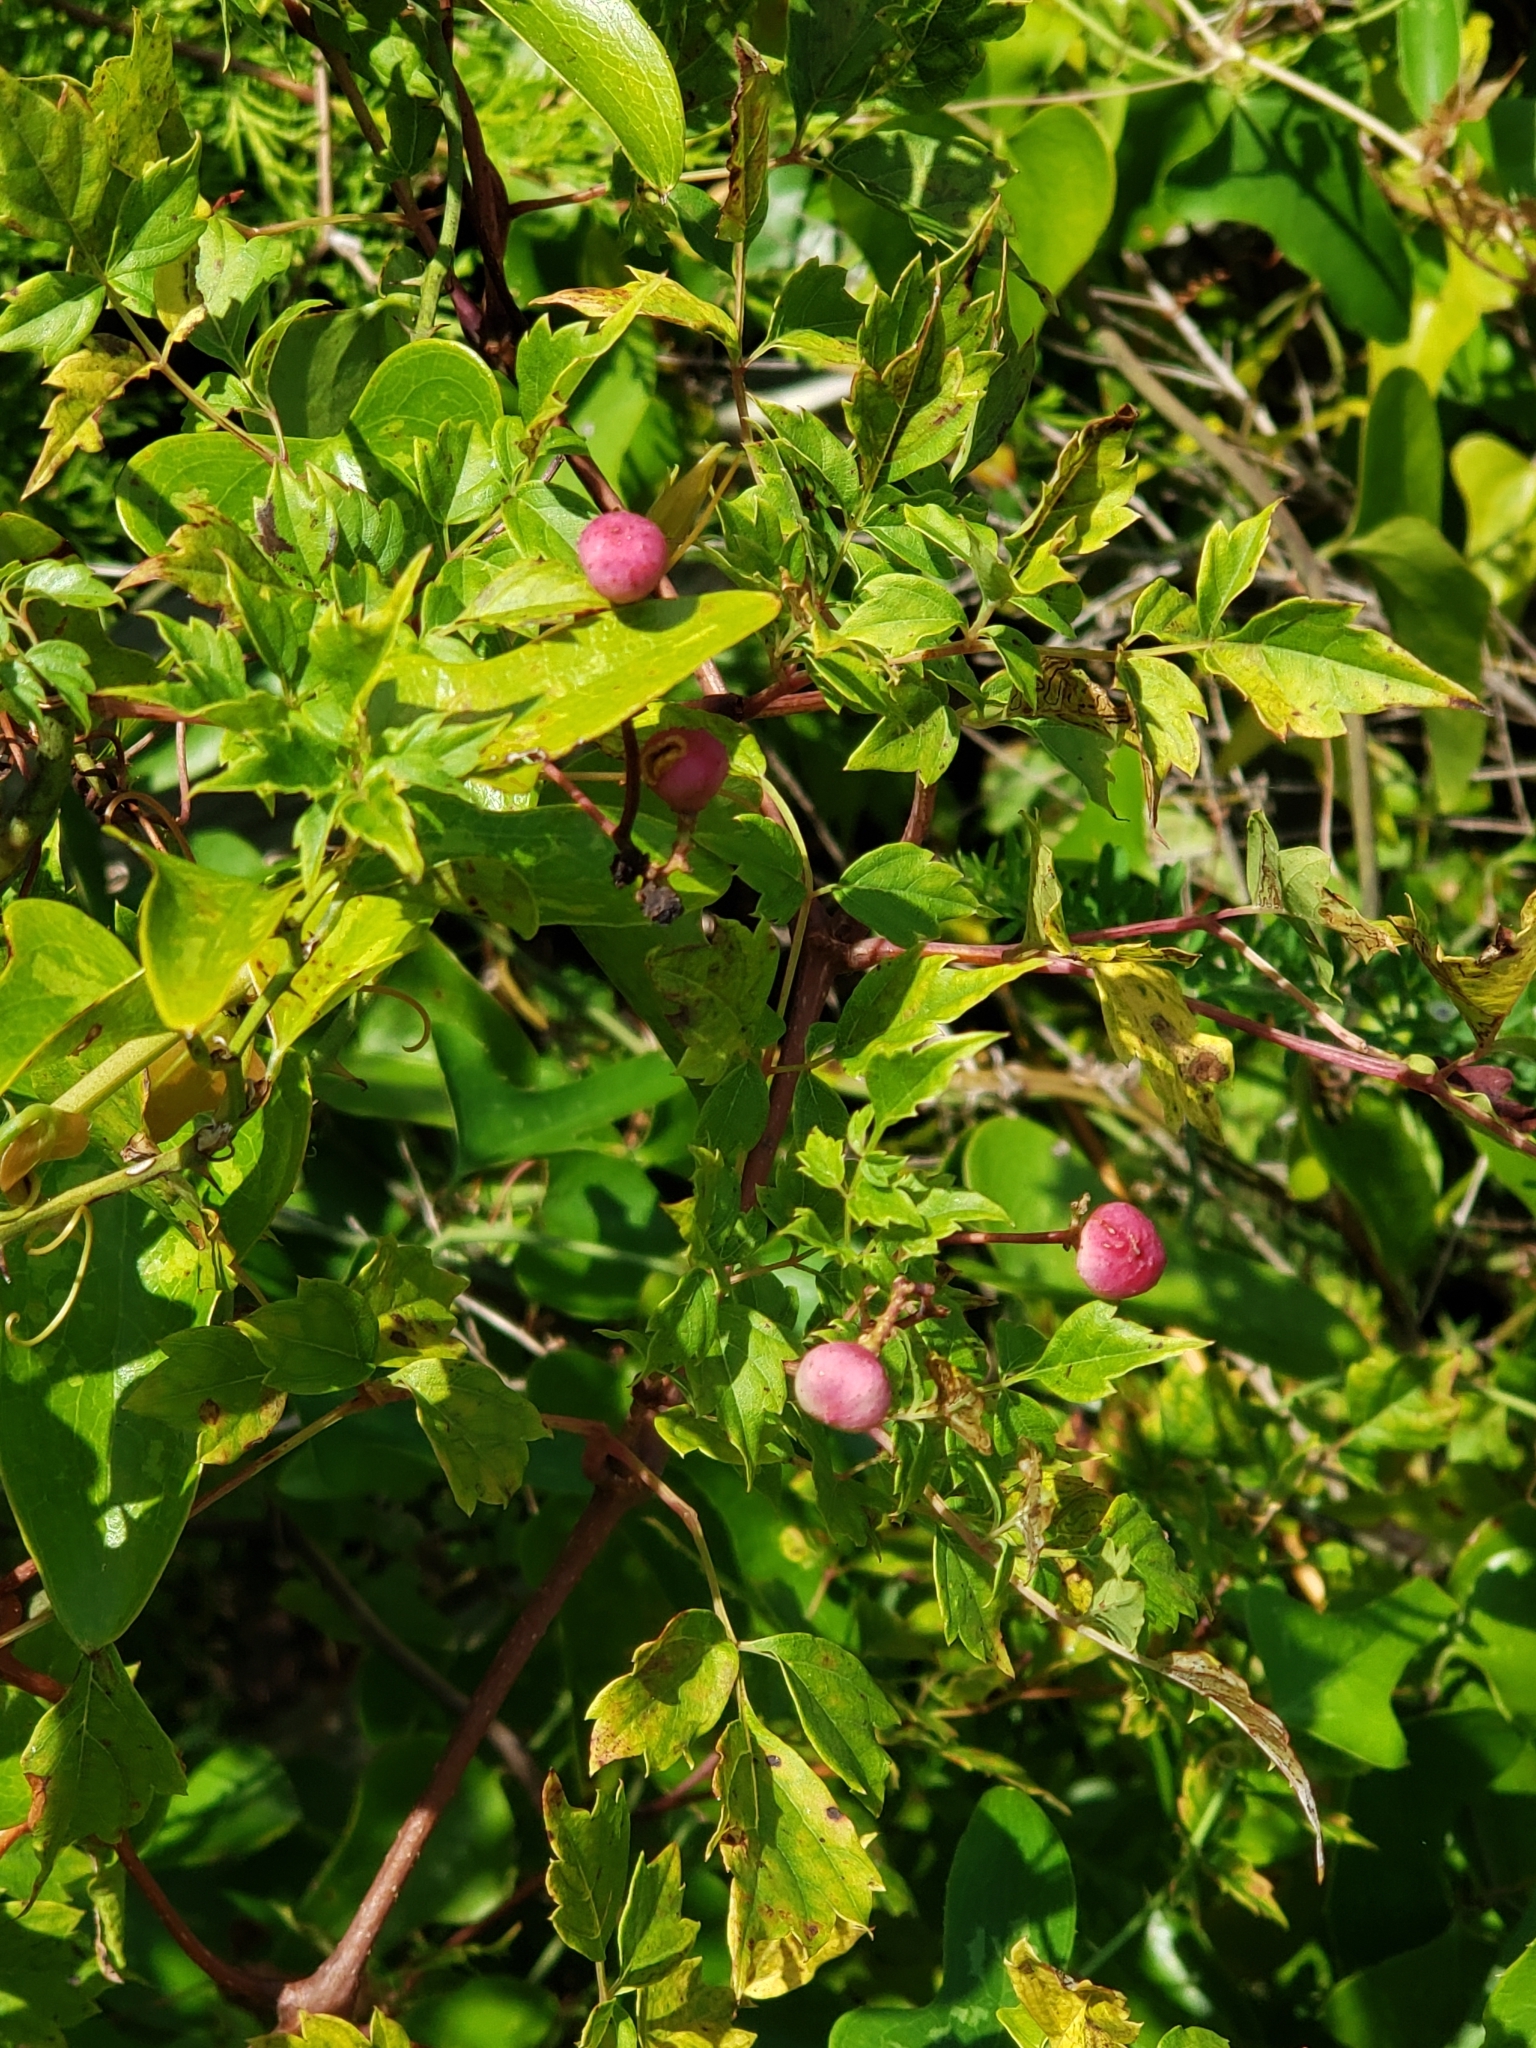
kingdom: Plantae
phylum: Tracheophyta
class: Magnoliopsida
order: Vitales
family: Vitaceae
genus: Nekemias
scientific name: Nekemias arborea
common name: Peppervine
